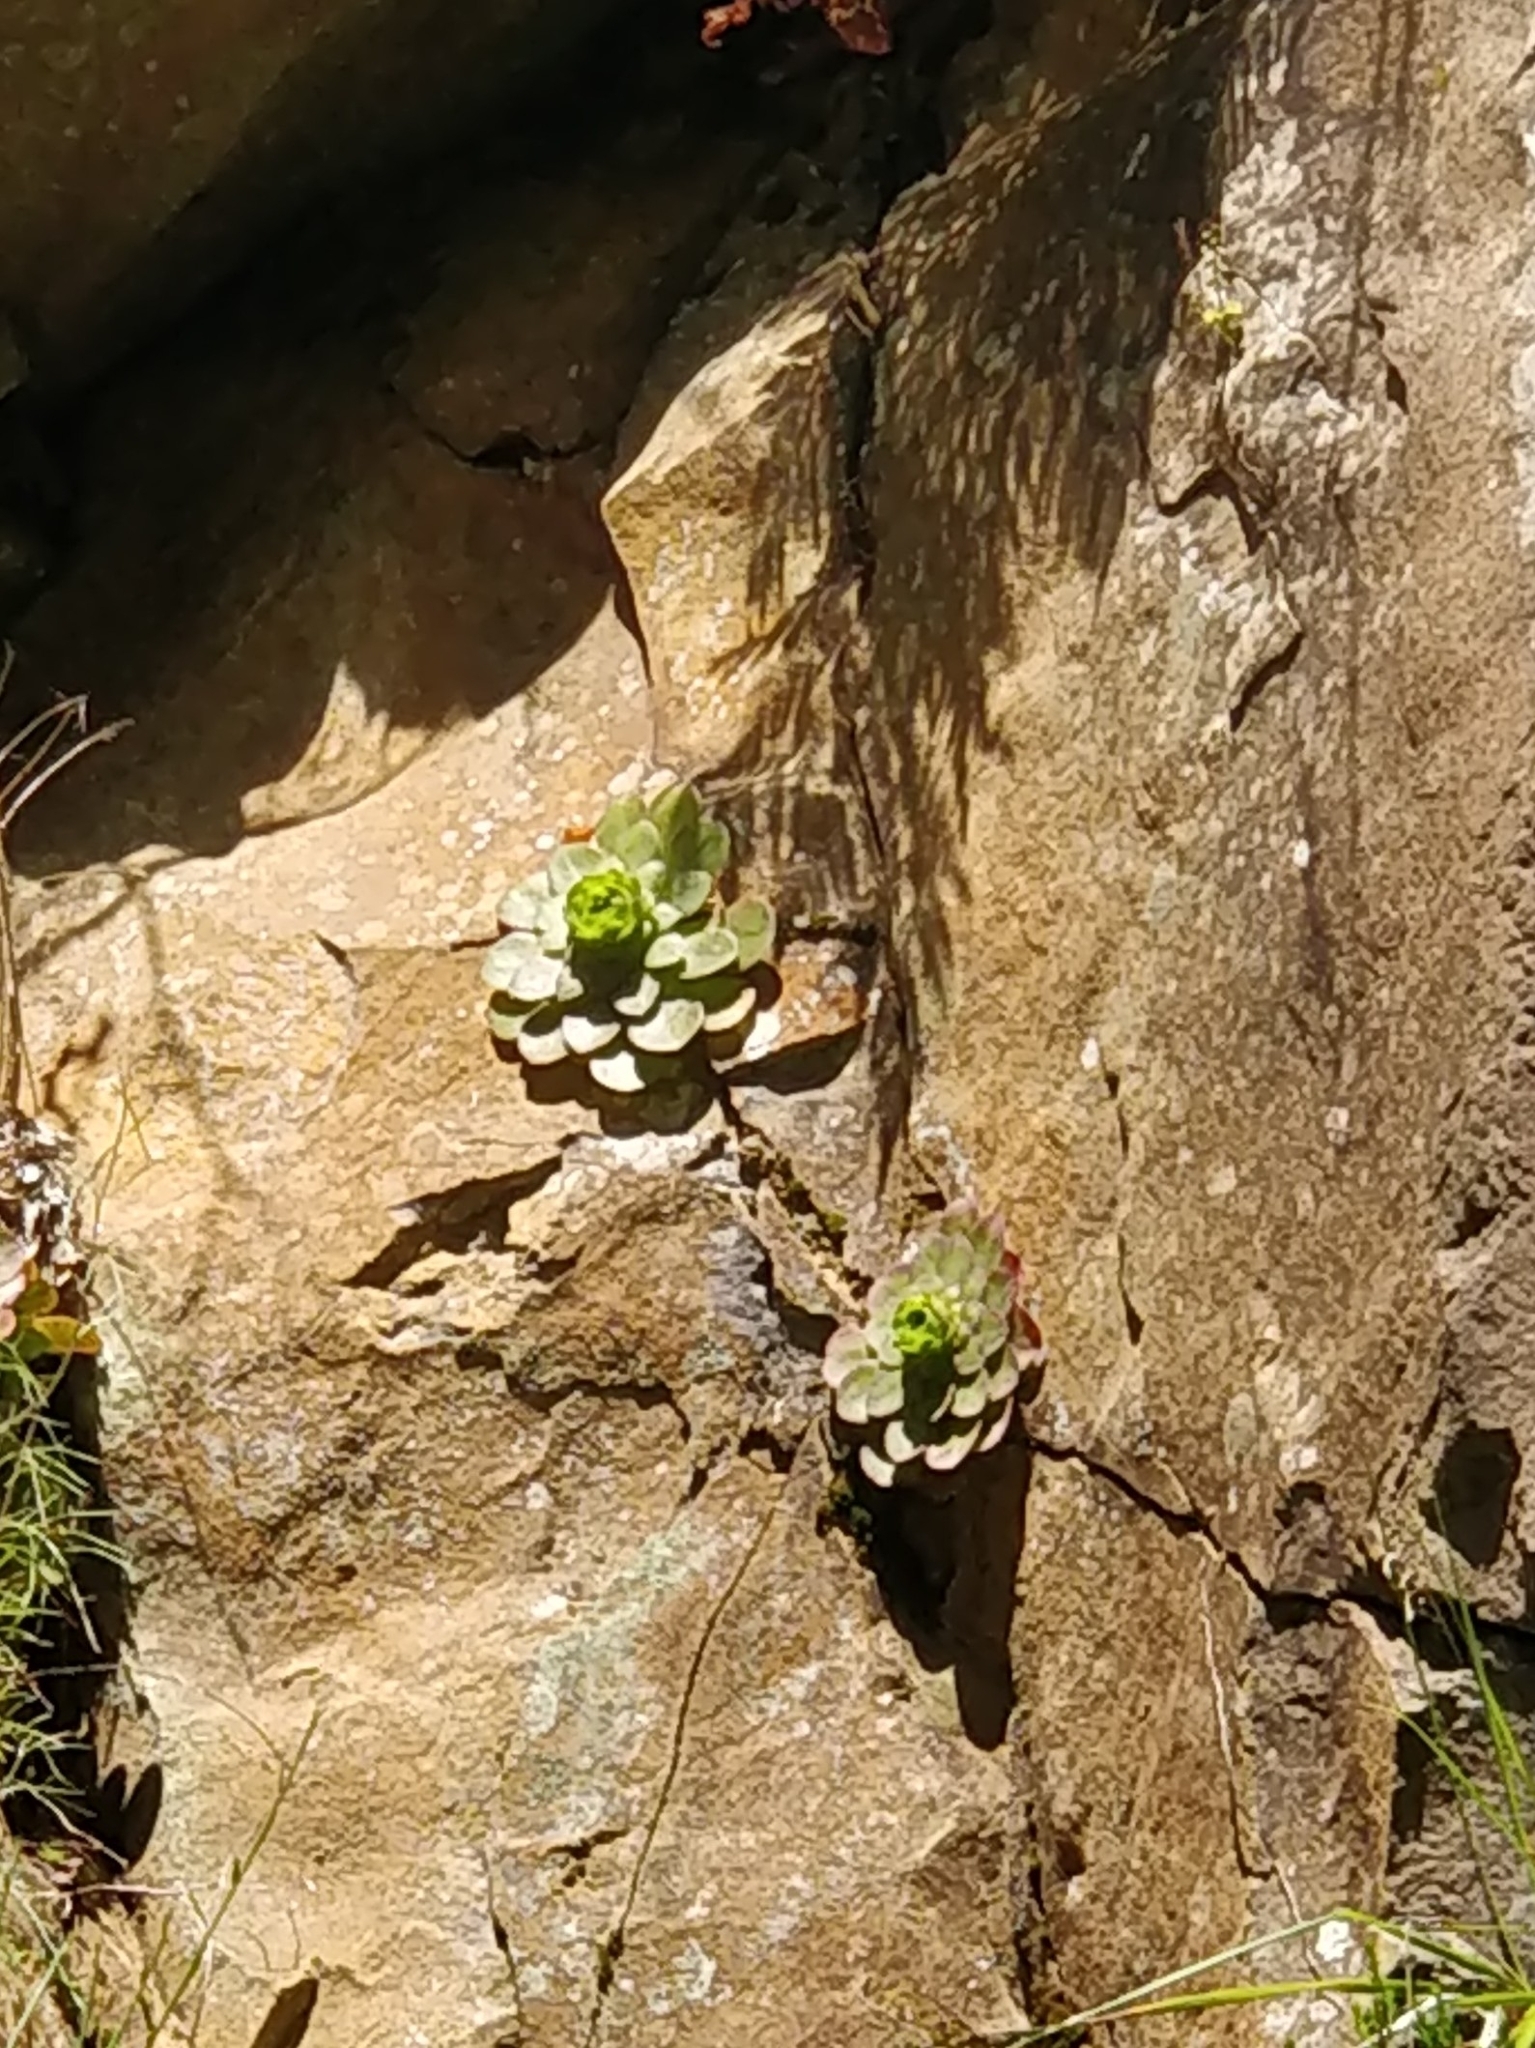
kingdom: Plantae
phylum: Tracheophyta
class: Magnoliopsida
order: Saxifragales
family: Crassulaceae
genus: Aeonium
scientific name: Aeonium glandulosum
